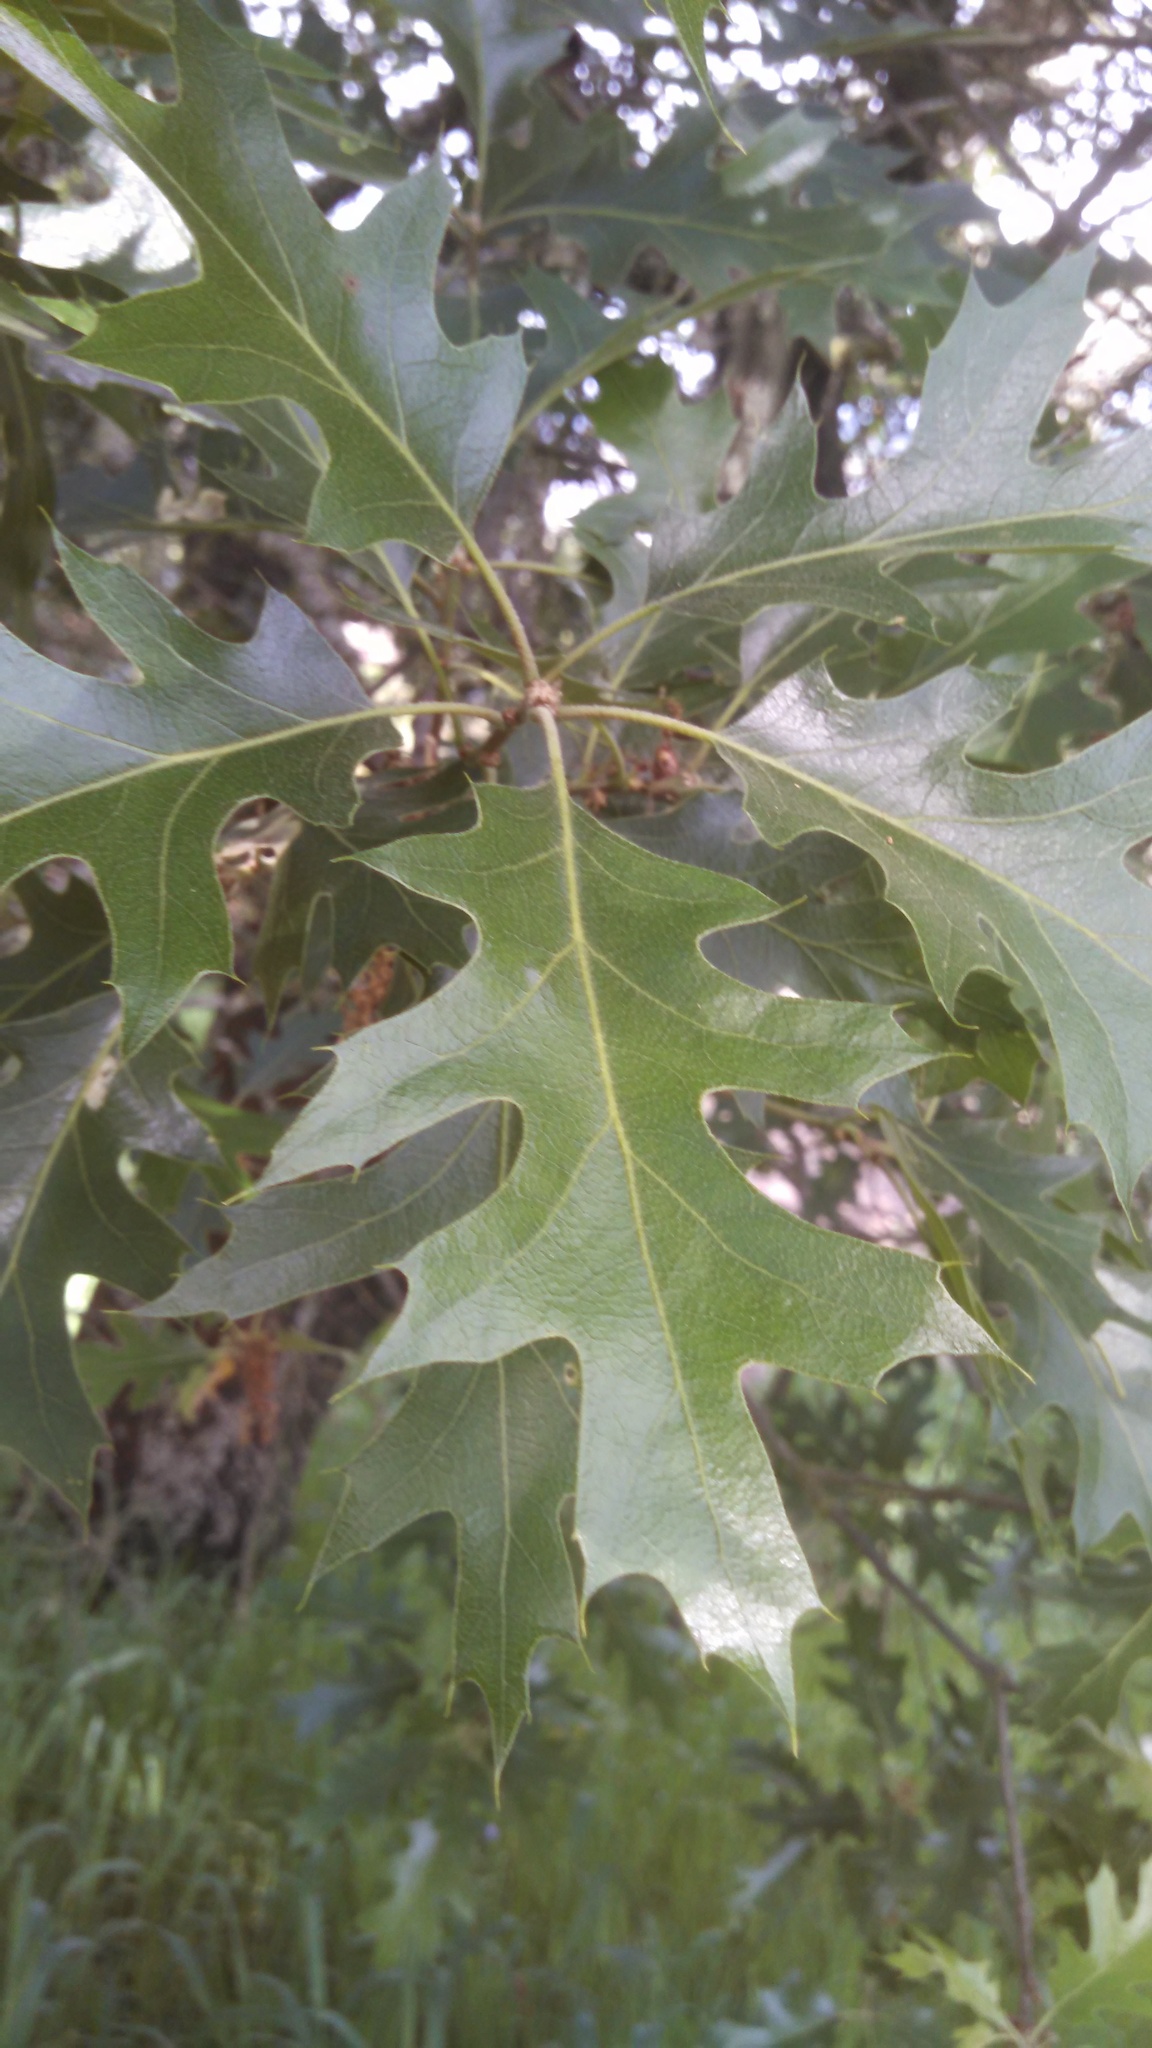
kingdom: Plantae
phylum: Tracheophyta
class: Magnoliopsida
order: Fagales
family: Fagaceae
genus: Quercus
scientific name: Quercus kelloggii
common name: California black oak
